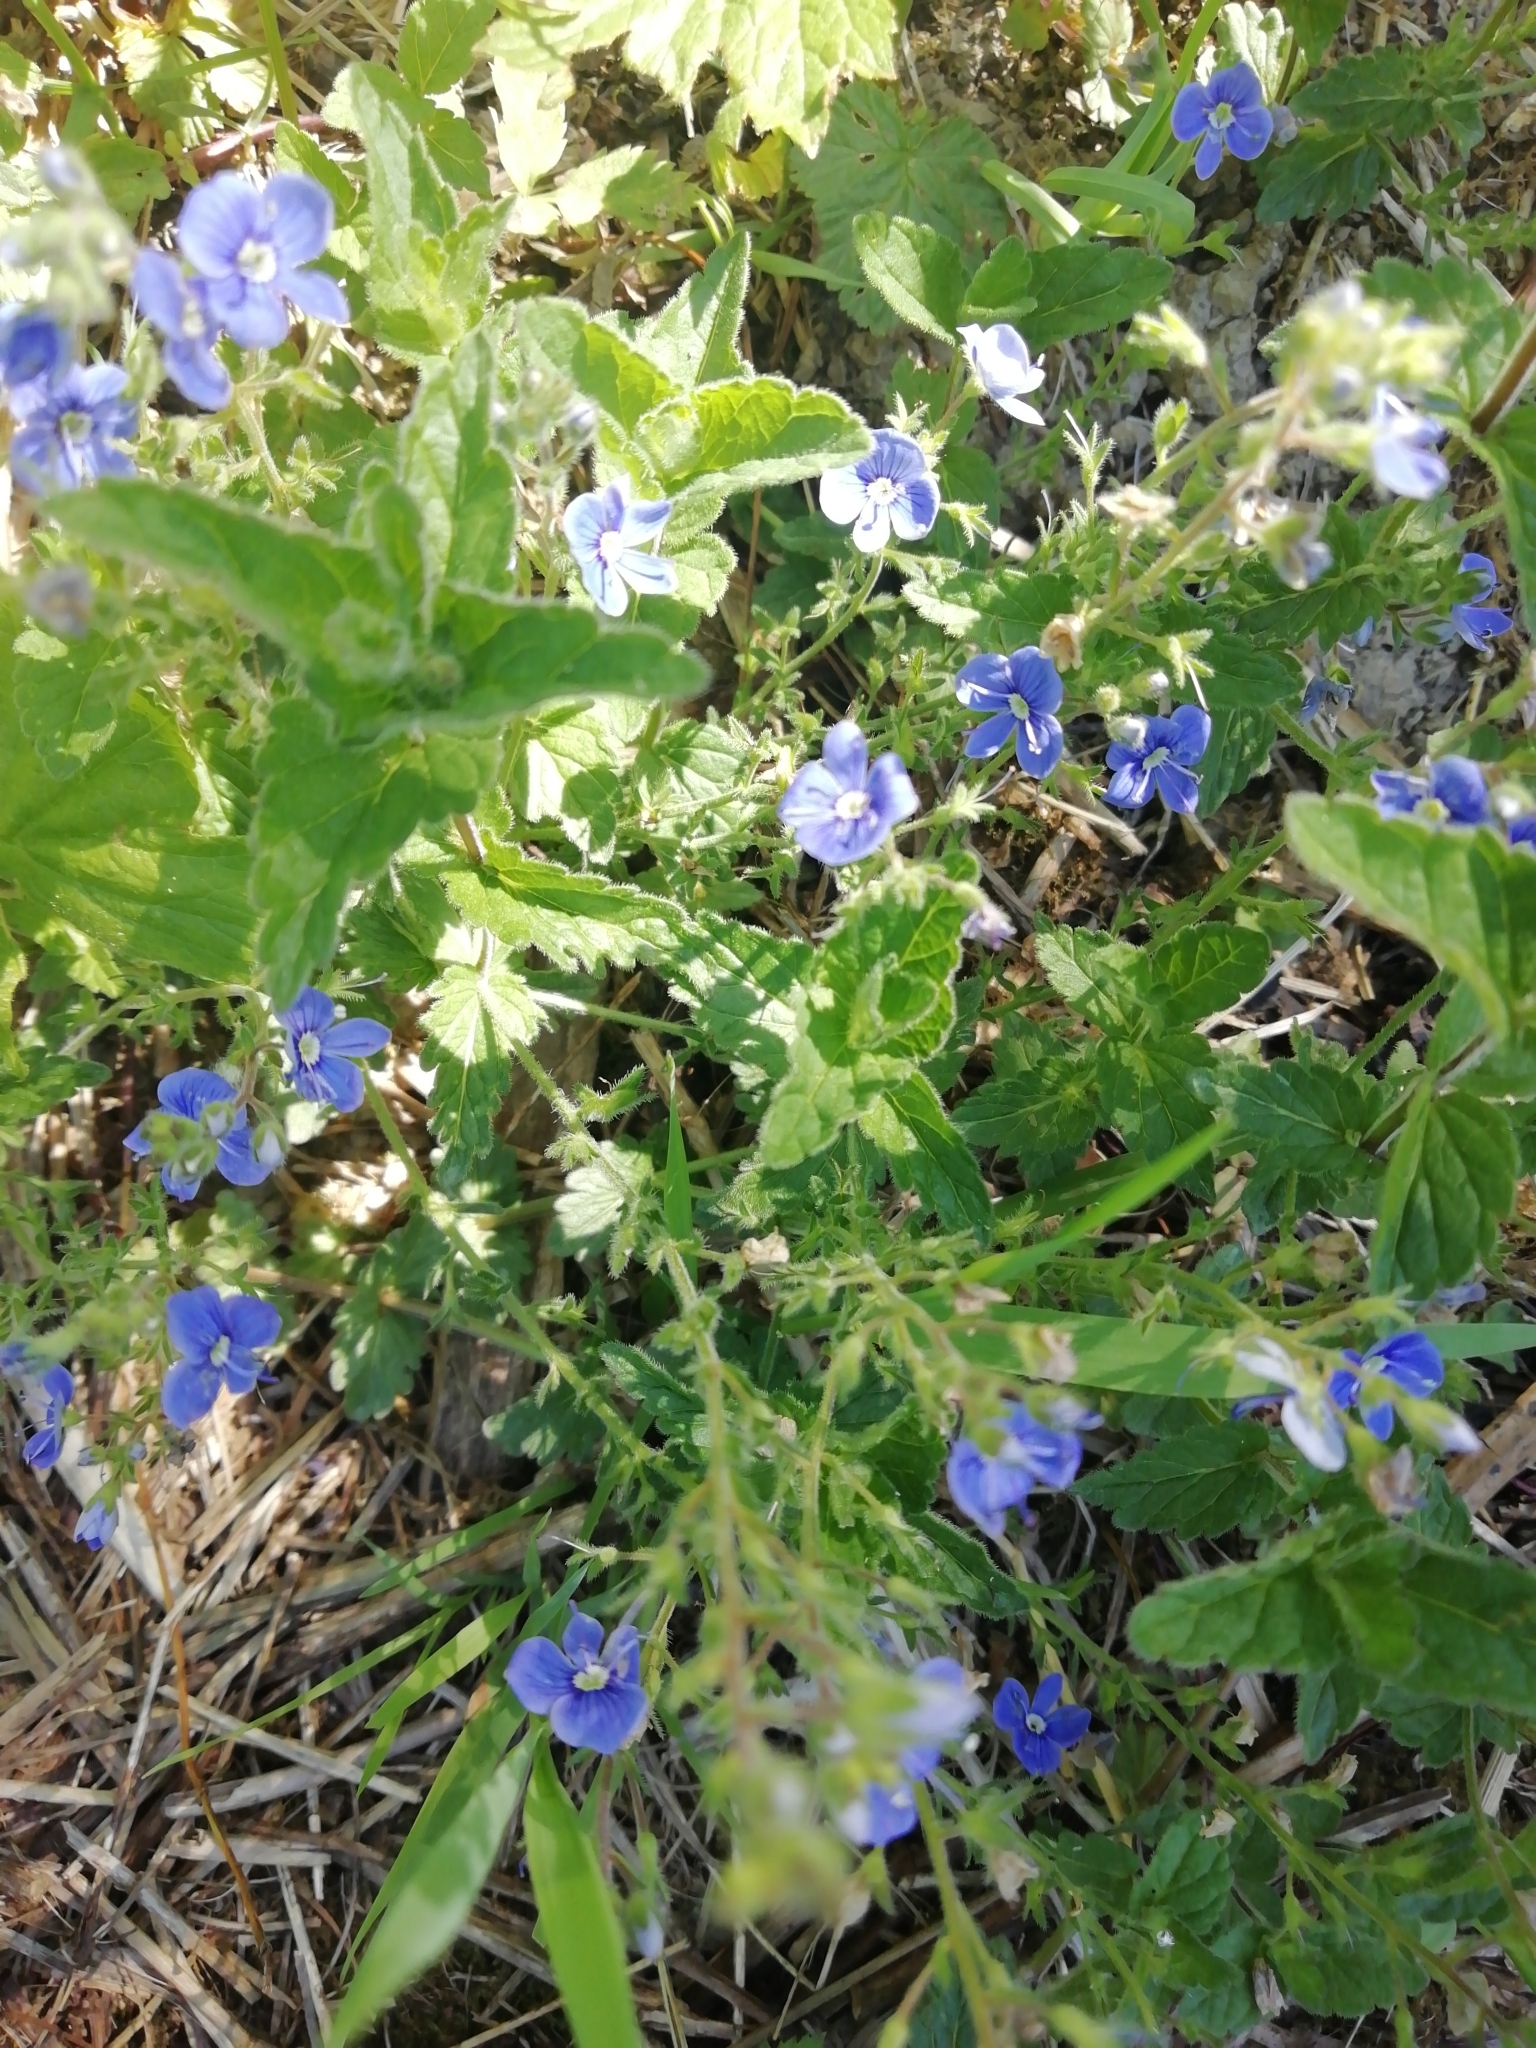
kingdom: Plantae
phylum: Tracheophyta
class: Magnoliopsida
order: Lamiales
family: Plantaginaceae
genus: Veronica
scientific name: Veronica chamaedrys
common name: Germander speedwell
